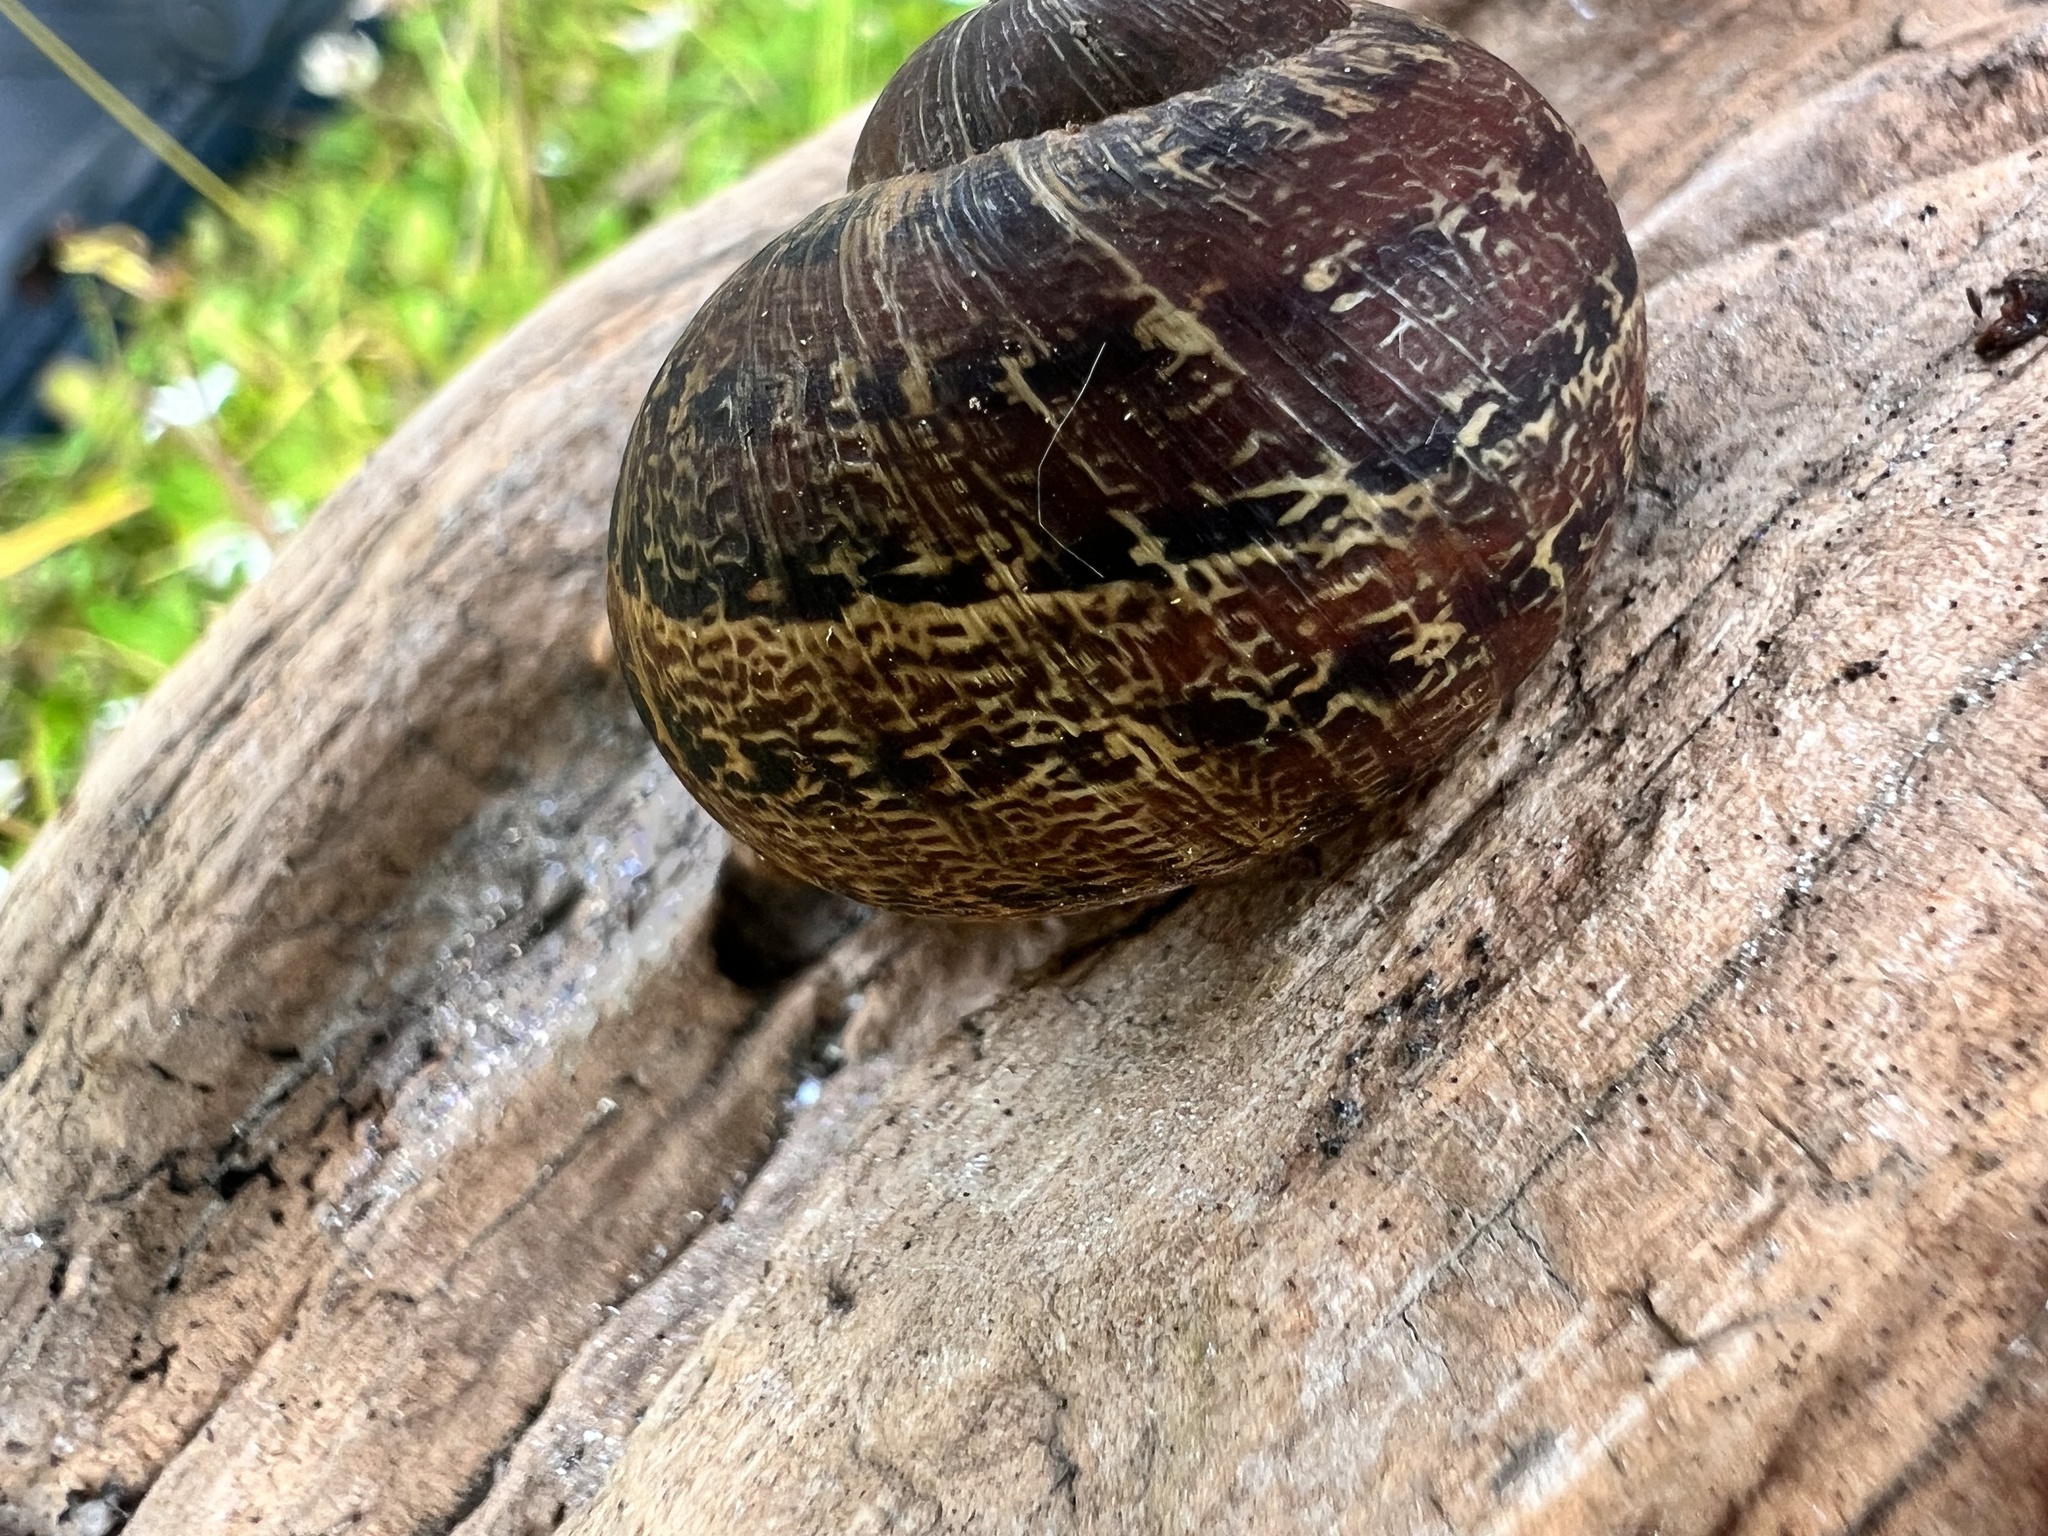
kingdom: Animalia
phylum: Mollusca
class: Gastropoda
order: Stylommatophora
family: Helicidae
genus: Cornu
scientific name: Cornu aspersum
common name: Brown garden snail
